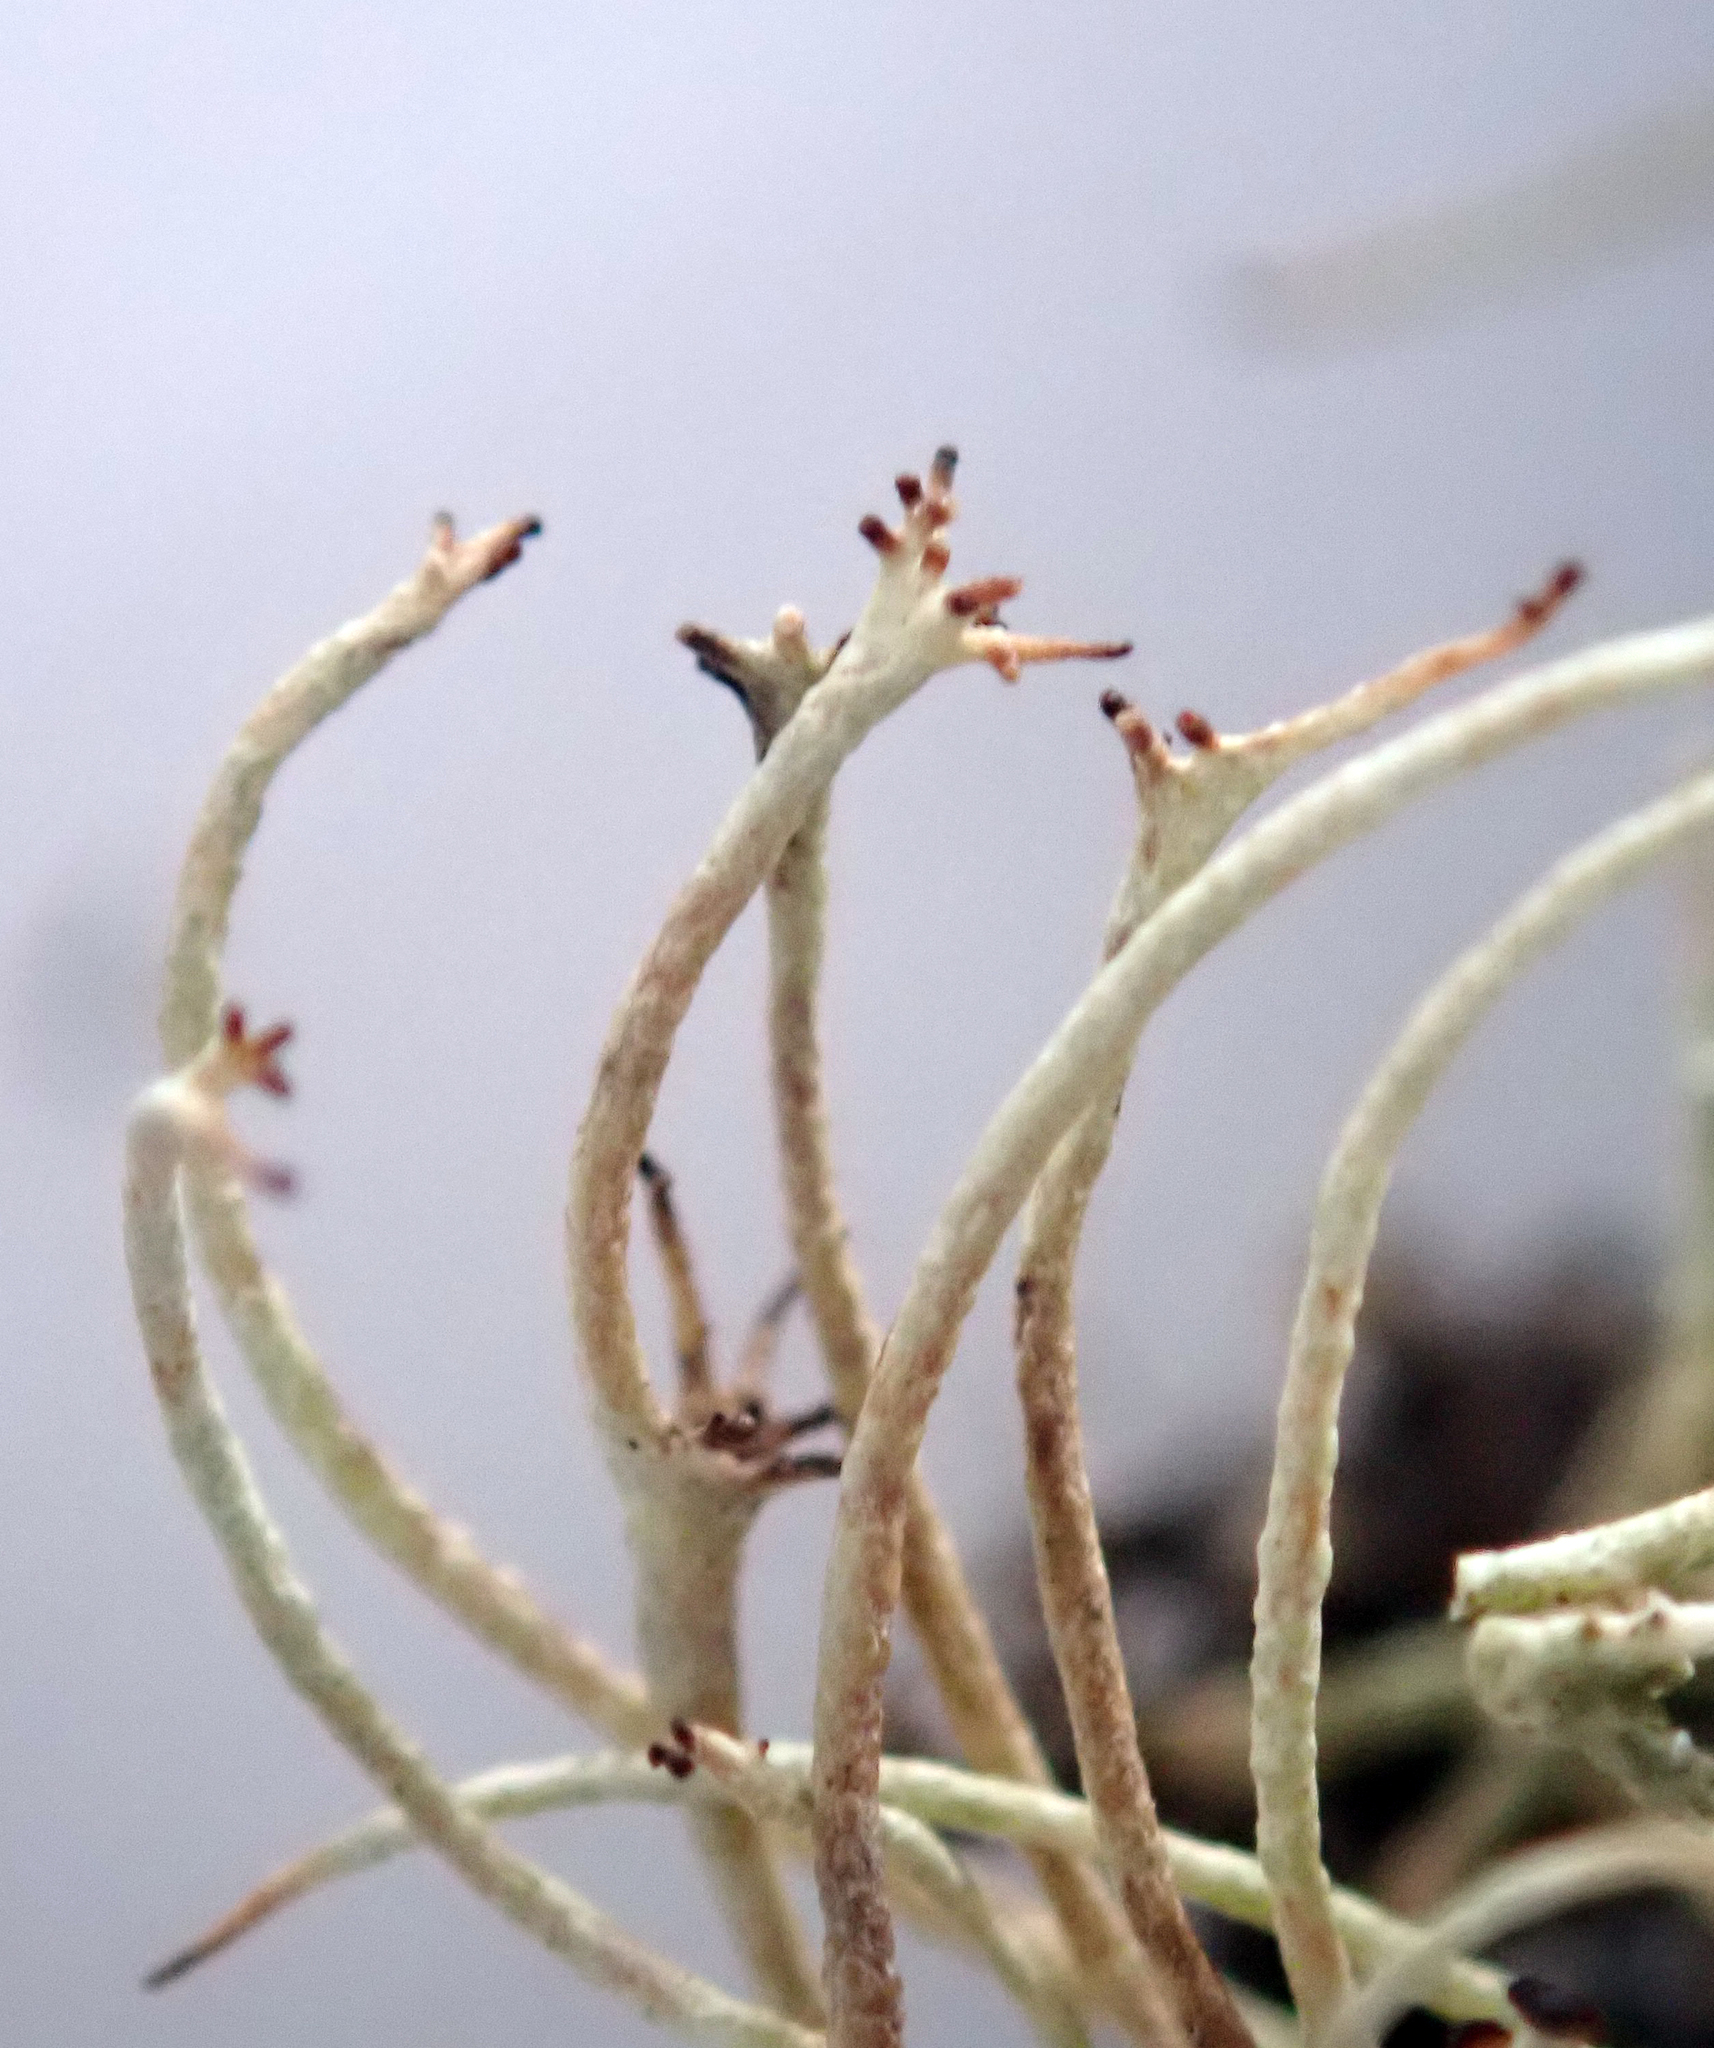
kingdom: Fungi
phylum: Ascomycota
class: Lecanoromycetes
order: Lecanorales
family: Cladoniaceae
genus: Cladonia
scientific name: Cladonia capitellata
